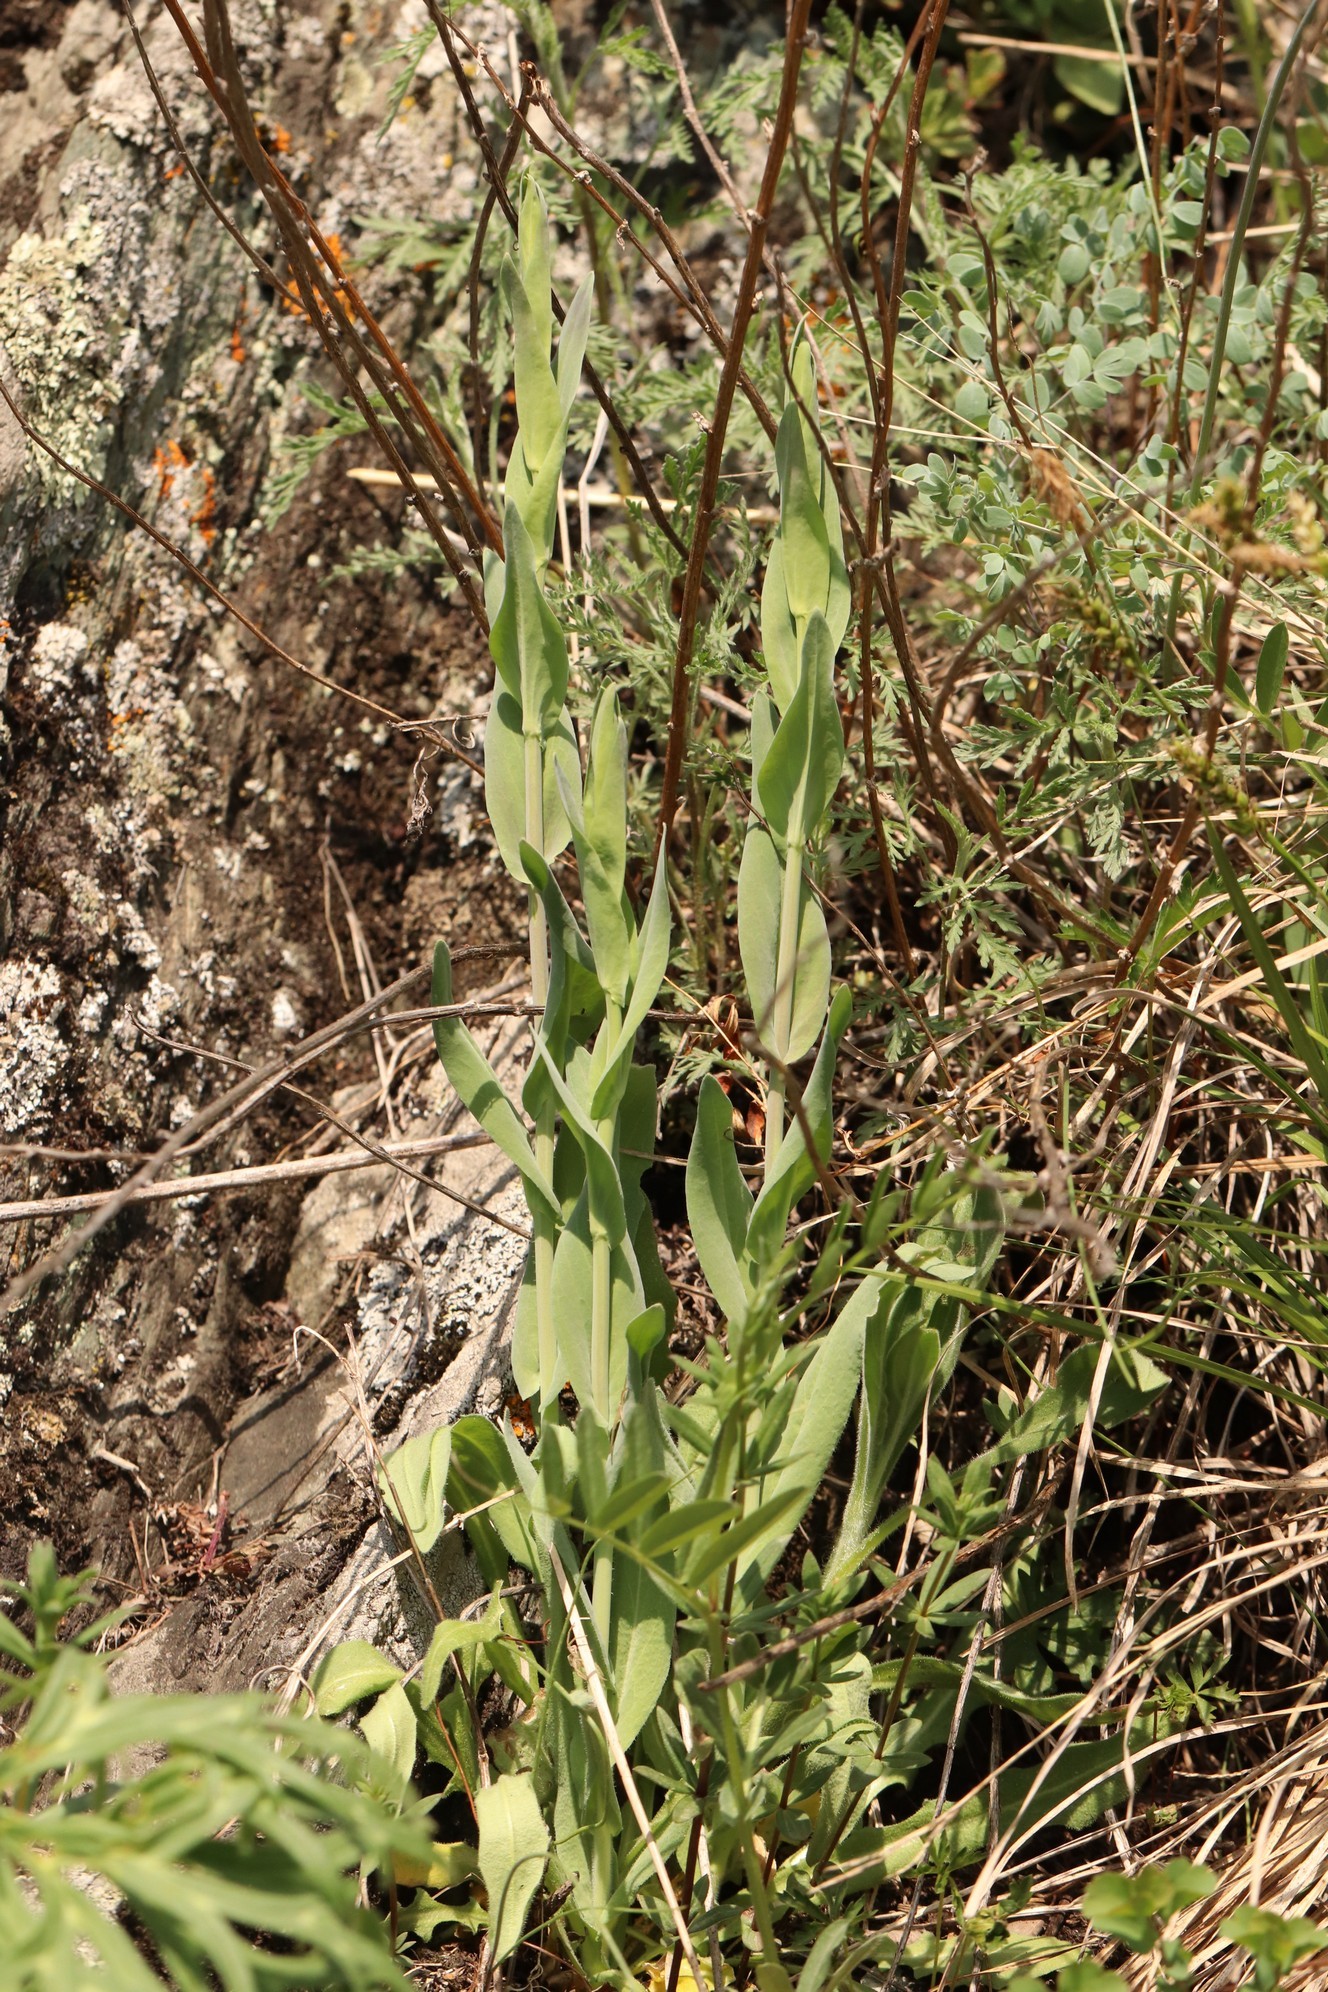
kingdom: Plantae
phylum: Tracheophyta
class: Magnoliopsida
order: Brassicales
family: Brassicaceae
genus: Turritis
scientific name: Turritis glabra
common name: Tower rockcress
